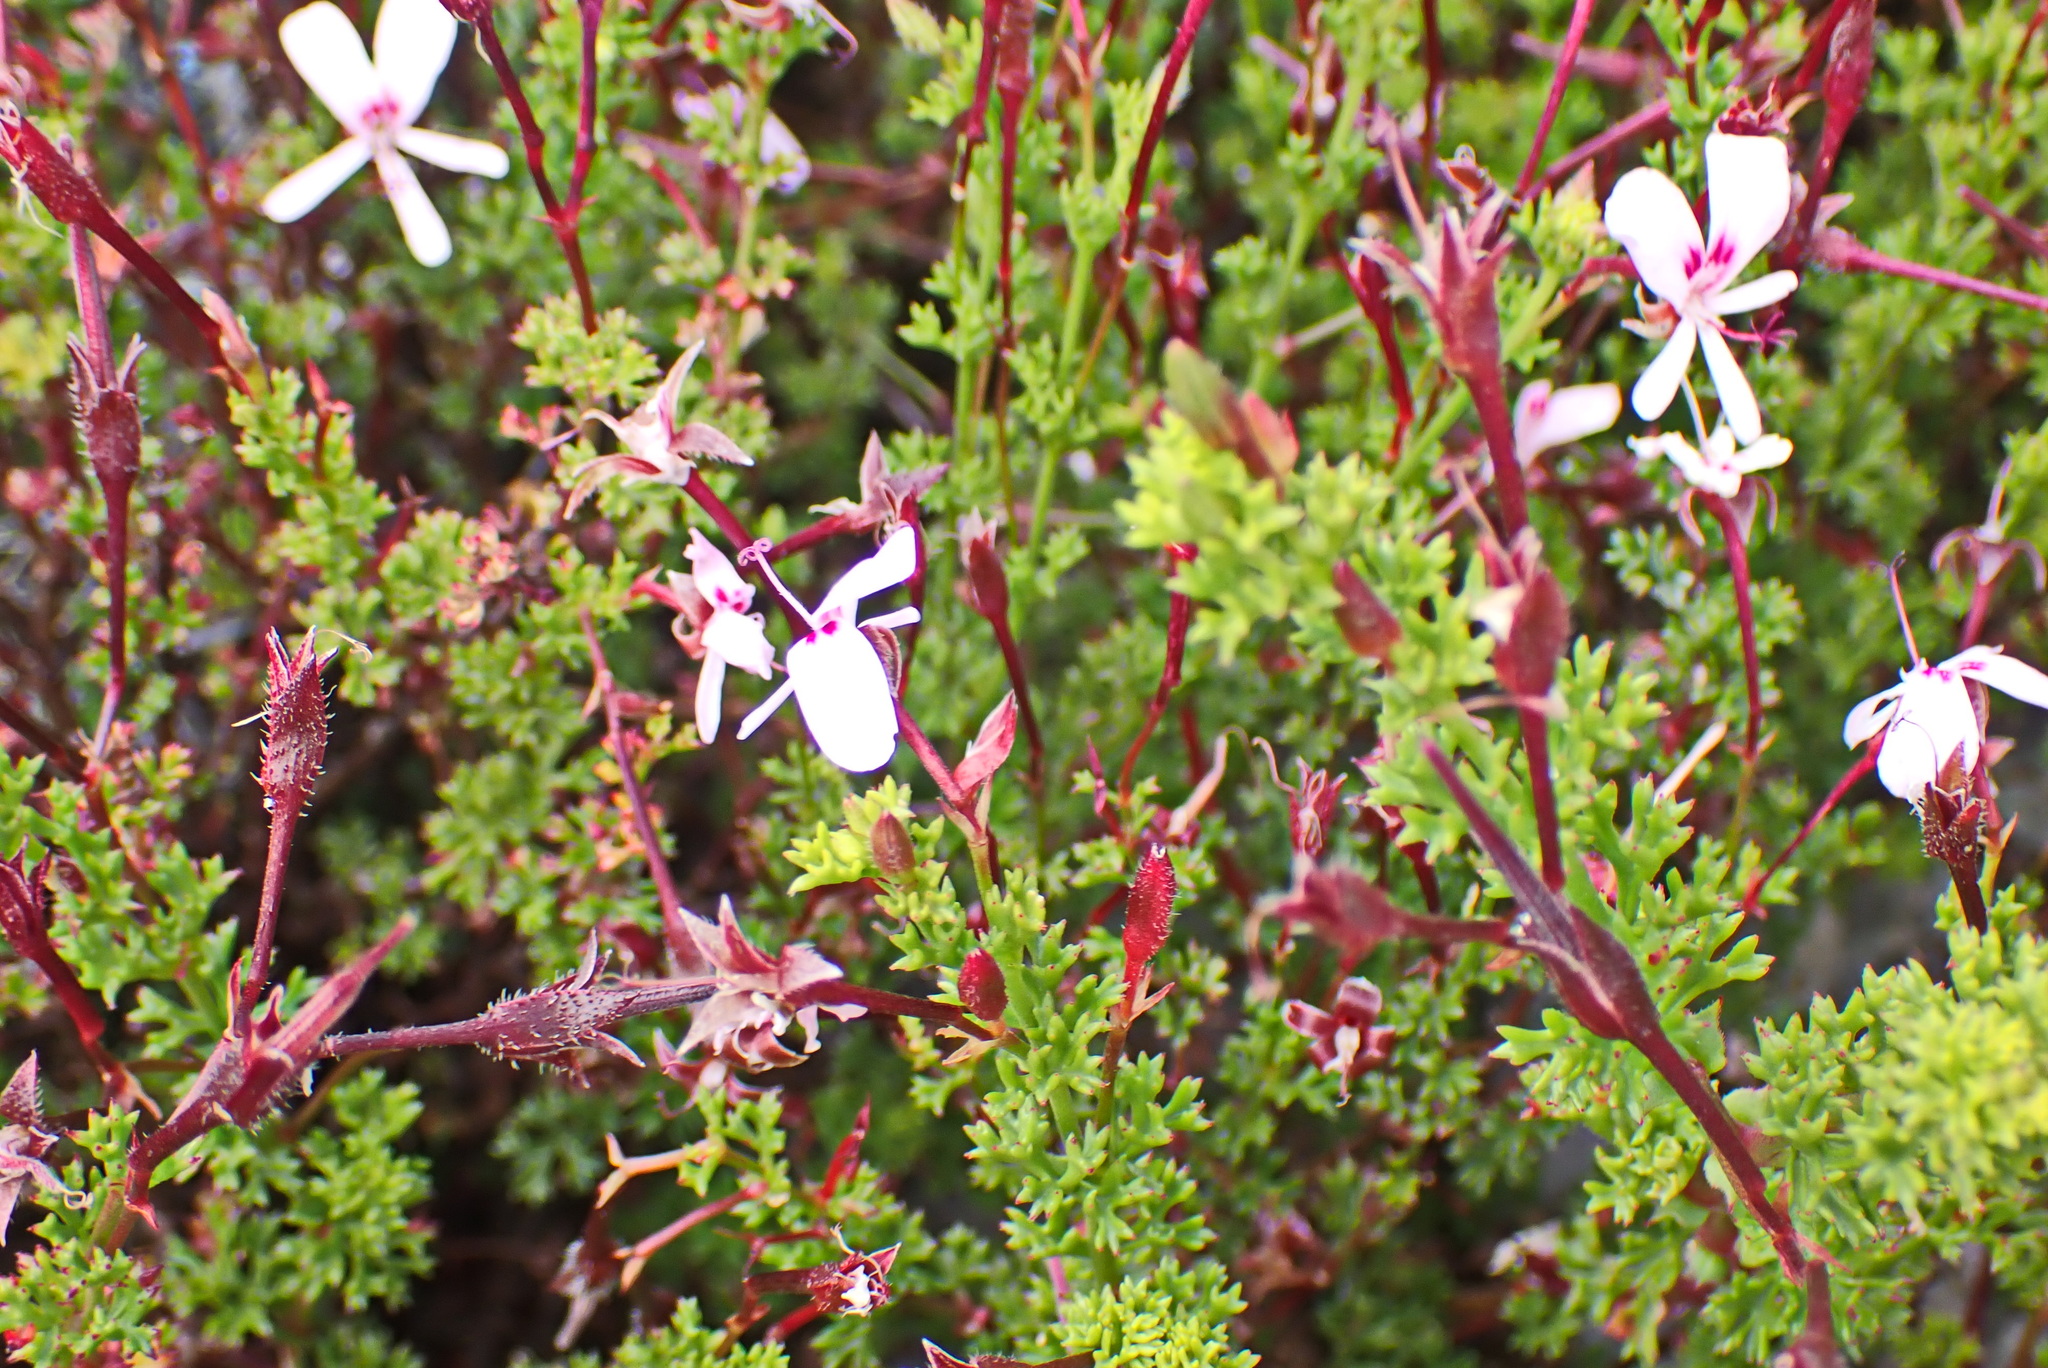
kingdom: Plantae
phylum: Tracheophyta
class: Magnoliopsida
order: Geraniales
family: Geraniaceae
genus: Pelargonium
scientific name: Pelargonium fruticosum
